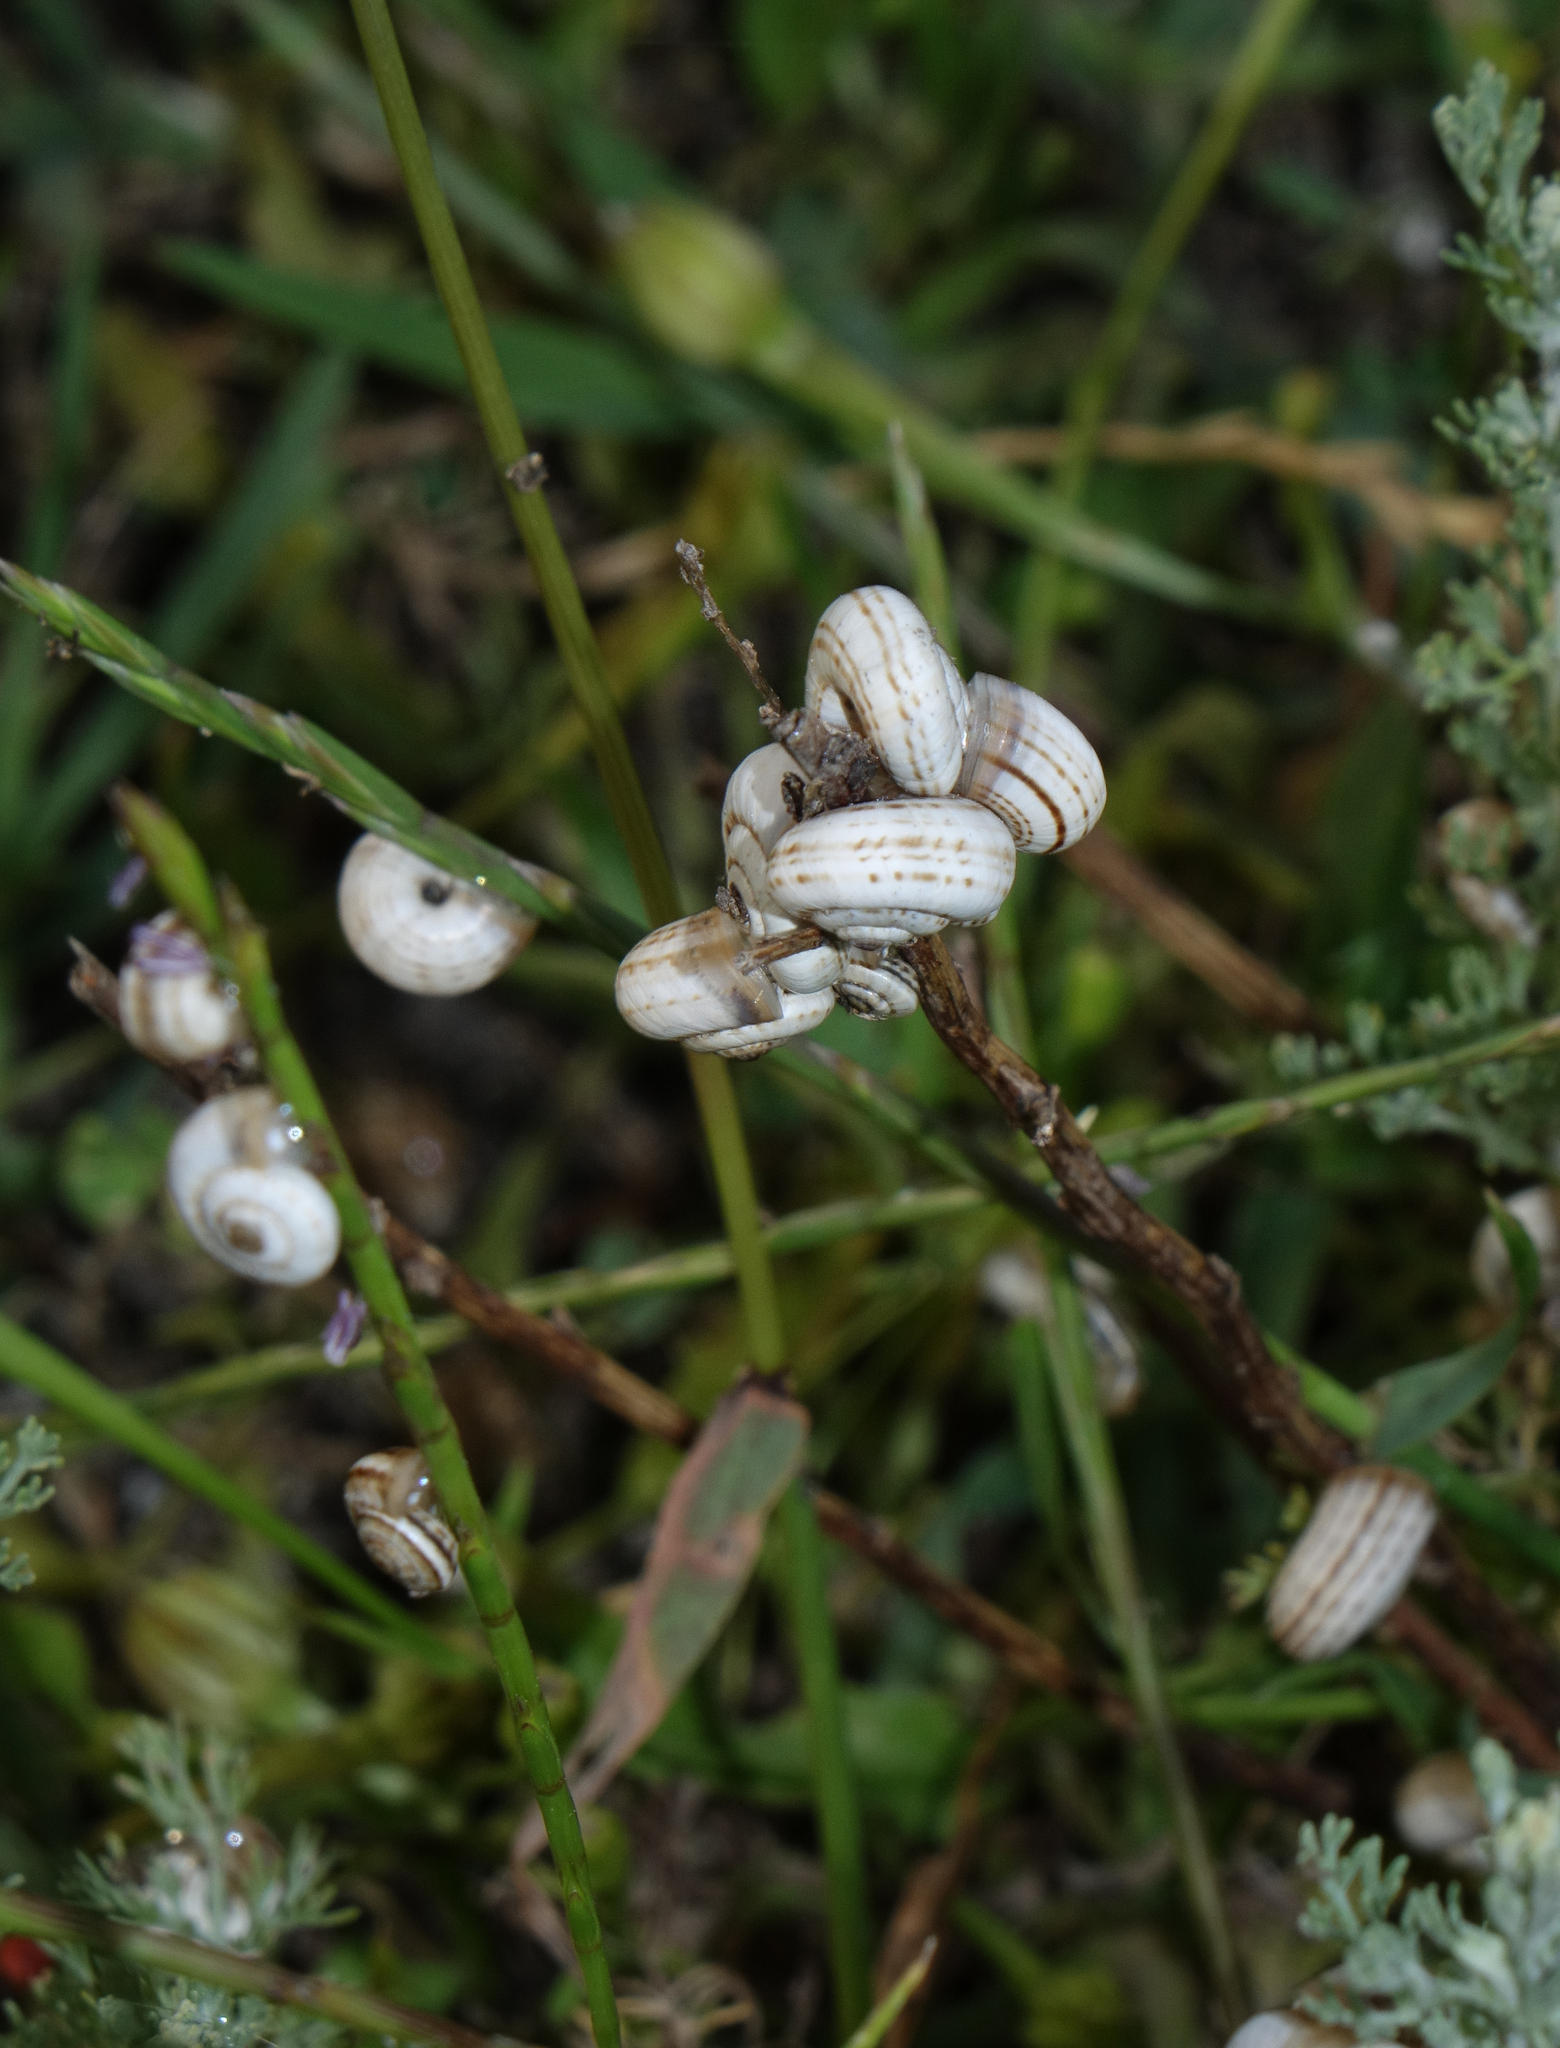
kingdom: Animalia
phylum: Mollusca
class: Gastropoda
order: Stylommatophora
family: Geomitridae
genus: Xeropicta
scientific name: Xeropicta derbentina
